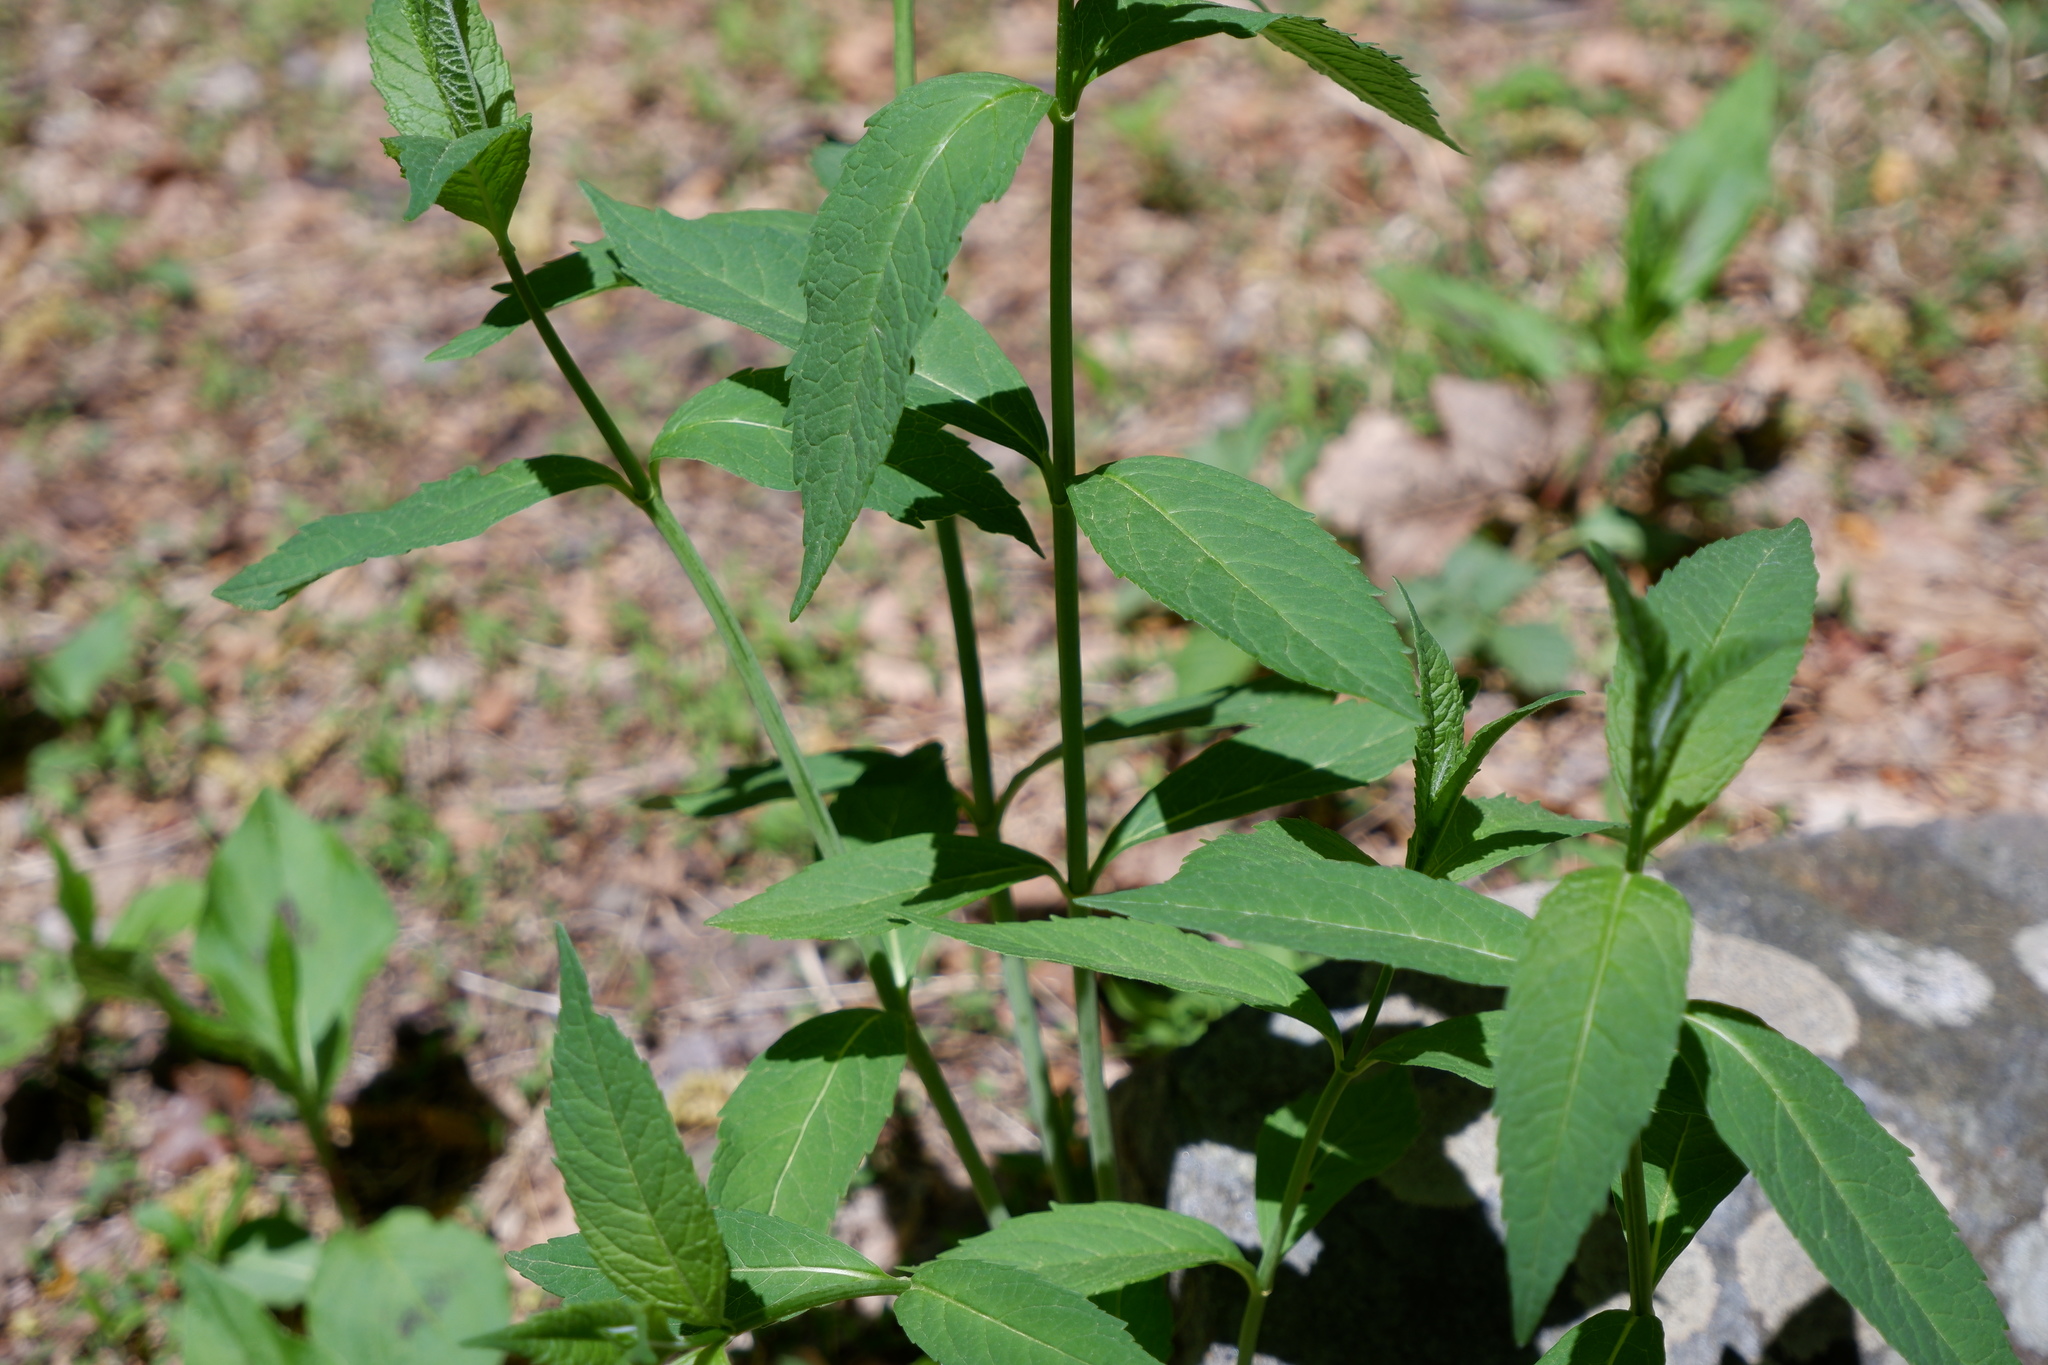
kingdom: Plantae
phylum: Tracheophyta
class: Magnoliopsida
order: Lamiales
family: Plantaginaceae
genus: Chelone
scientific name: Chelone glabra
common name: Snakehead
